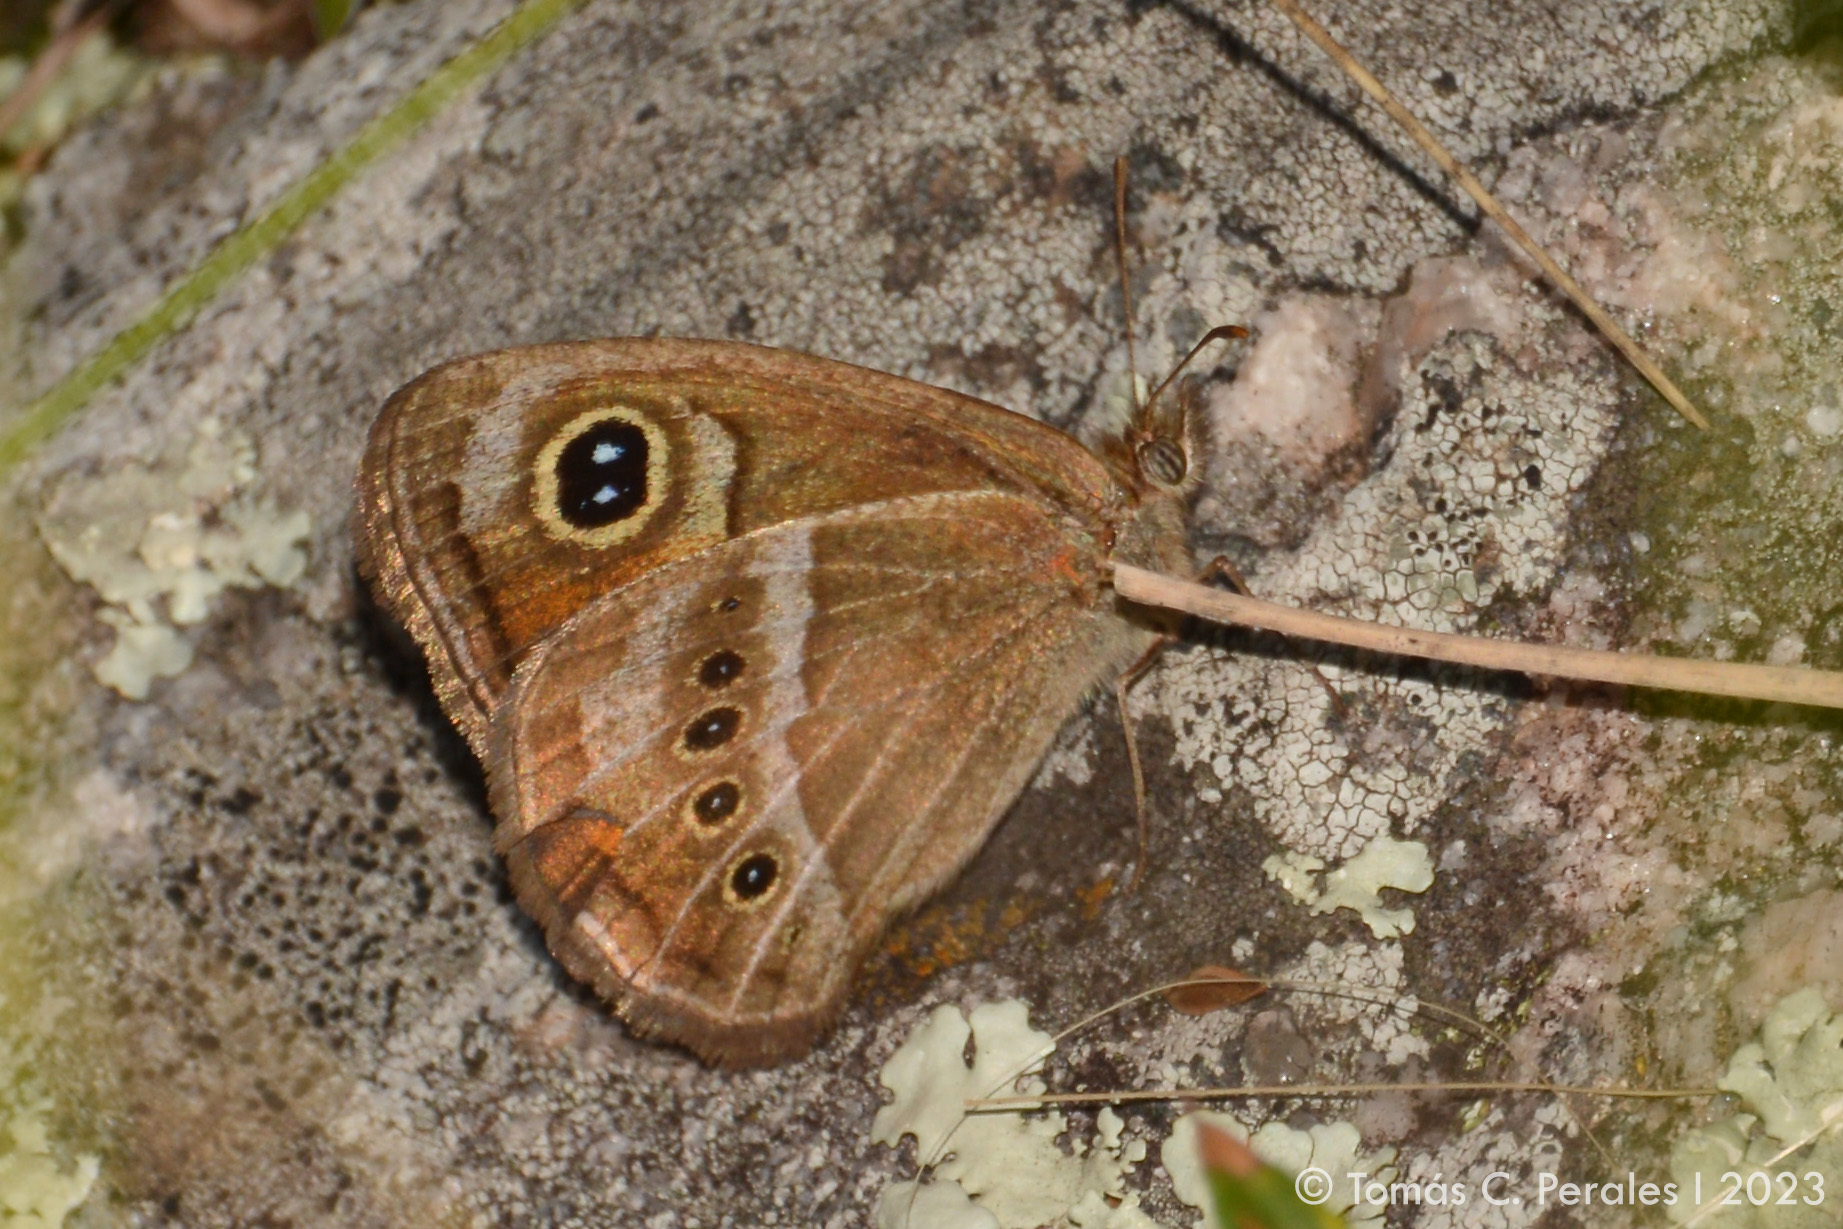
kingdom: Animalia
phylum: Arthropoda
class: Insecta
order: Lepidoptera
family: Nymphalidae
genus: Pampasatyrus
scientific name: Pampasatyrus gyrtone
